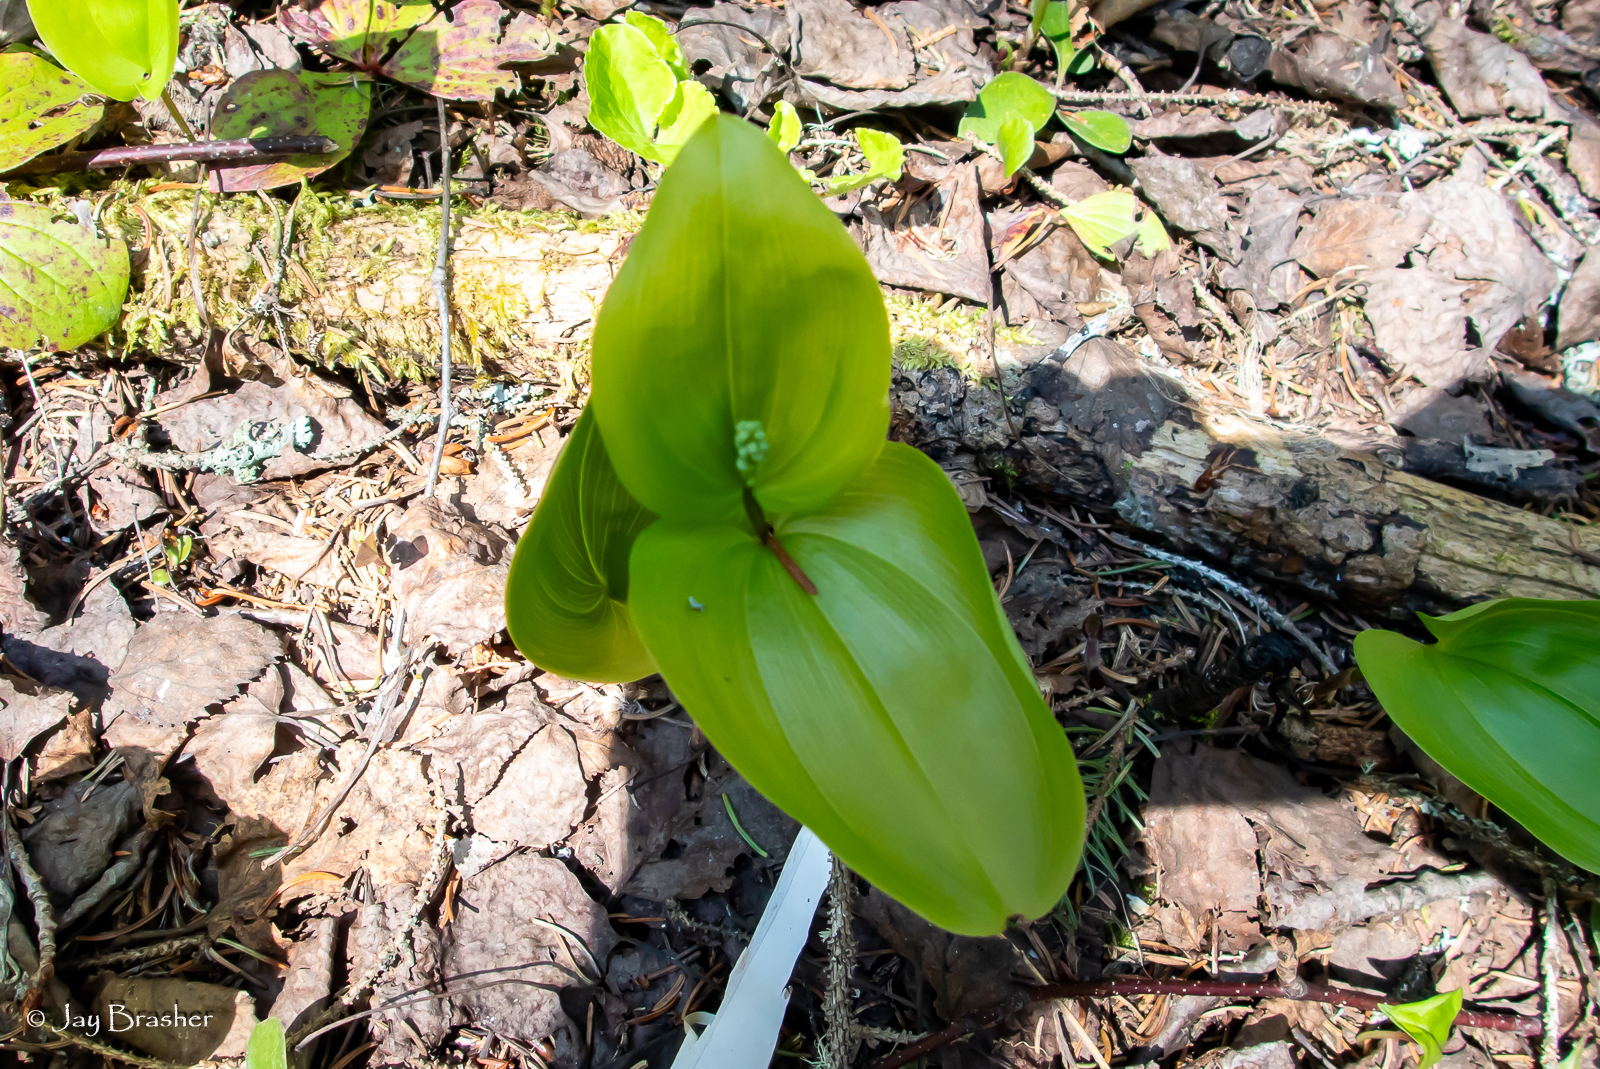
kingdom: Plantae
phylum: Tracheophyta
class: Liliopsida
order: Asparagales
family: Asparagaceae
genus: Maianthemum
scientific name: Maianthemum canadense
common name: False lily-of-the-valley
